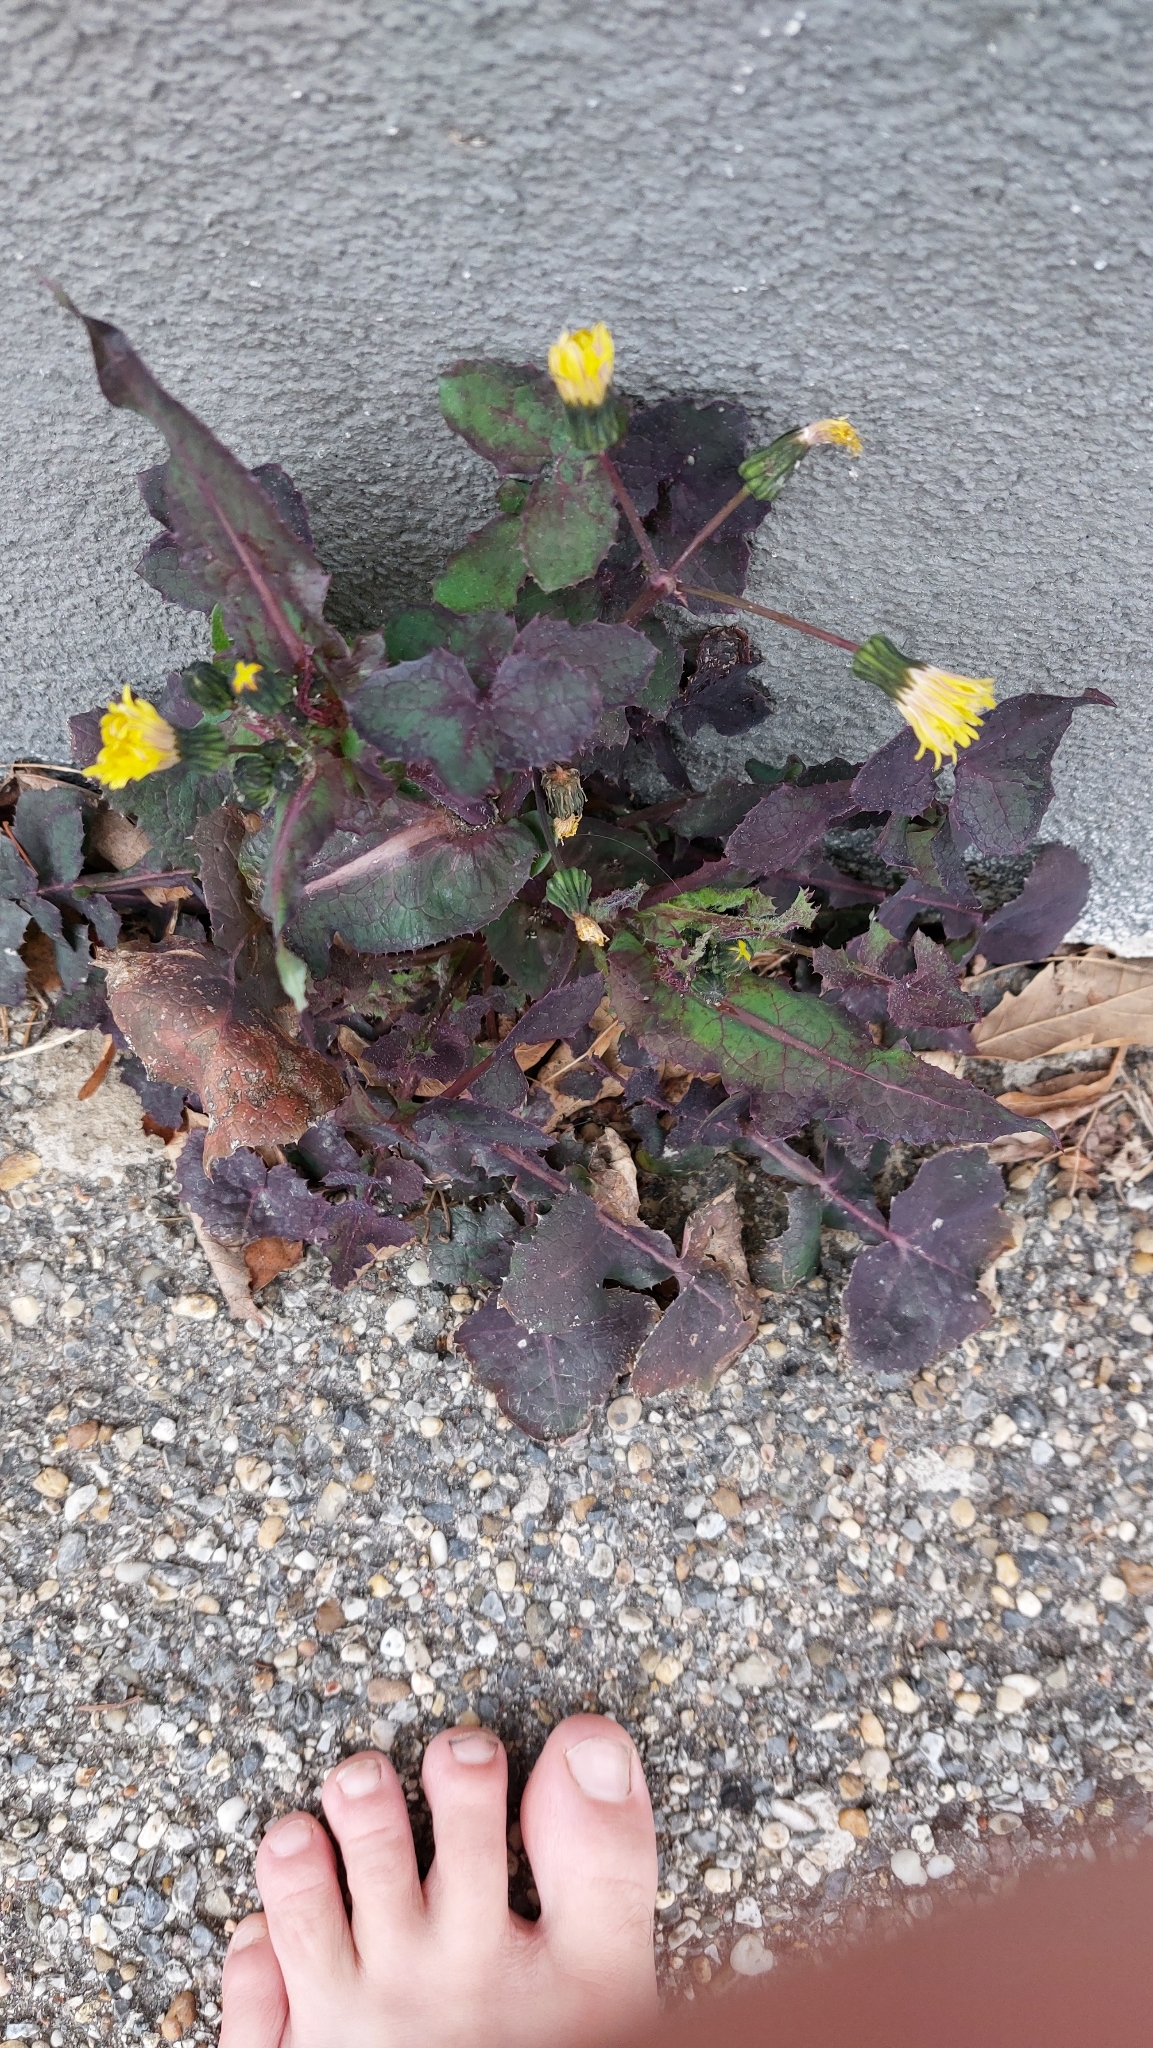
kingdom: Plantae
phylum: Tracheophyta
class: Magnoliopsida
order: Asterales
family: Asteraceae
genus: Sonchus
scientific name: Sonchus oleraceus
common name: Common sowthistle
